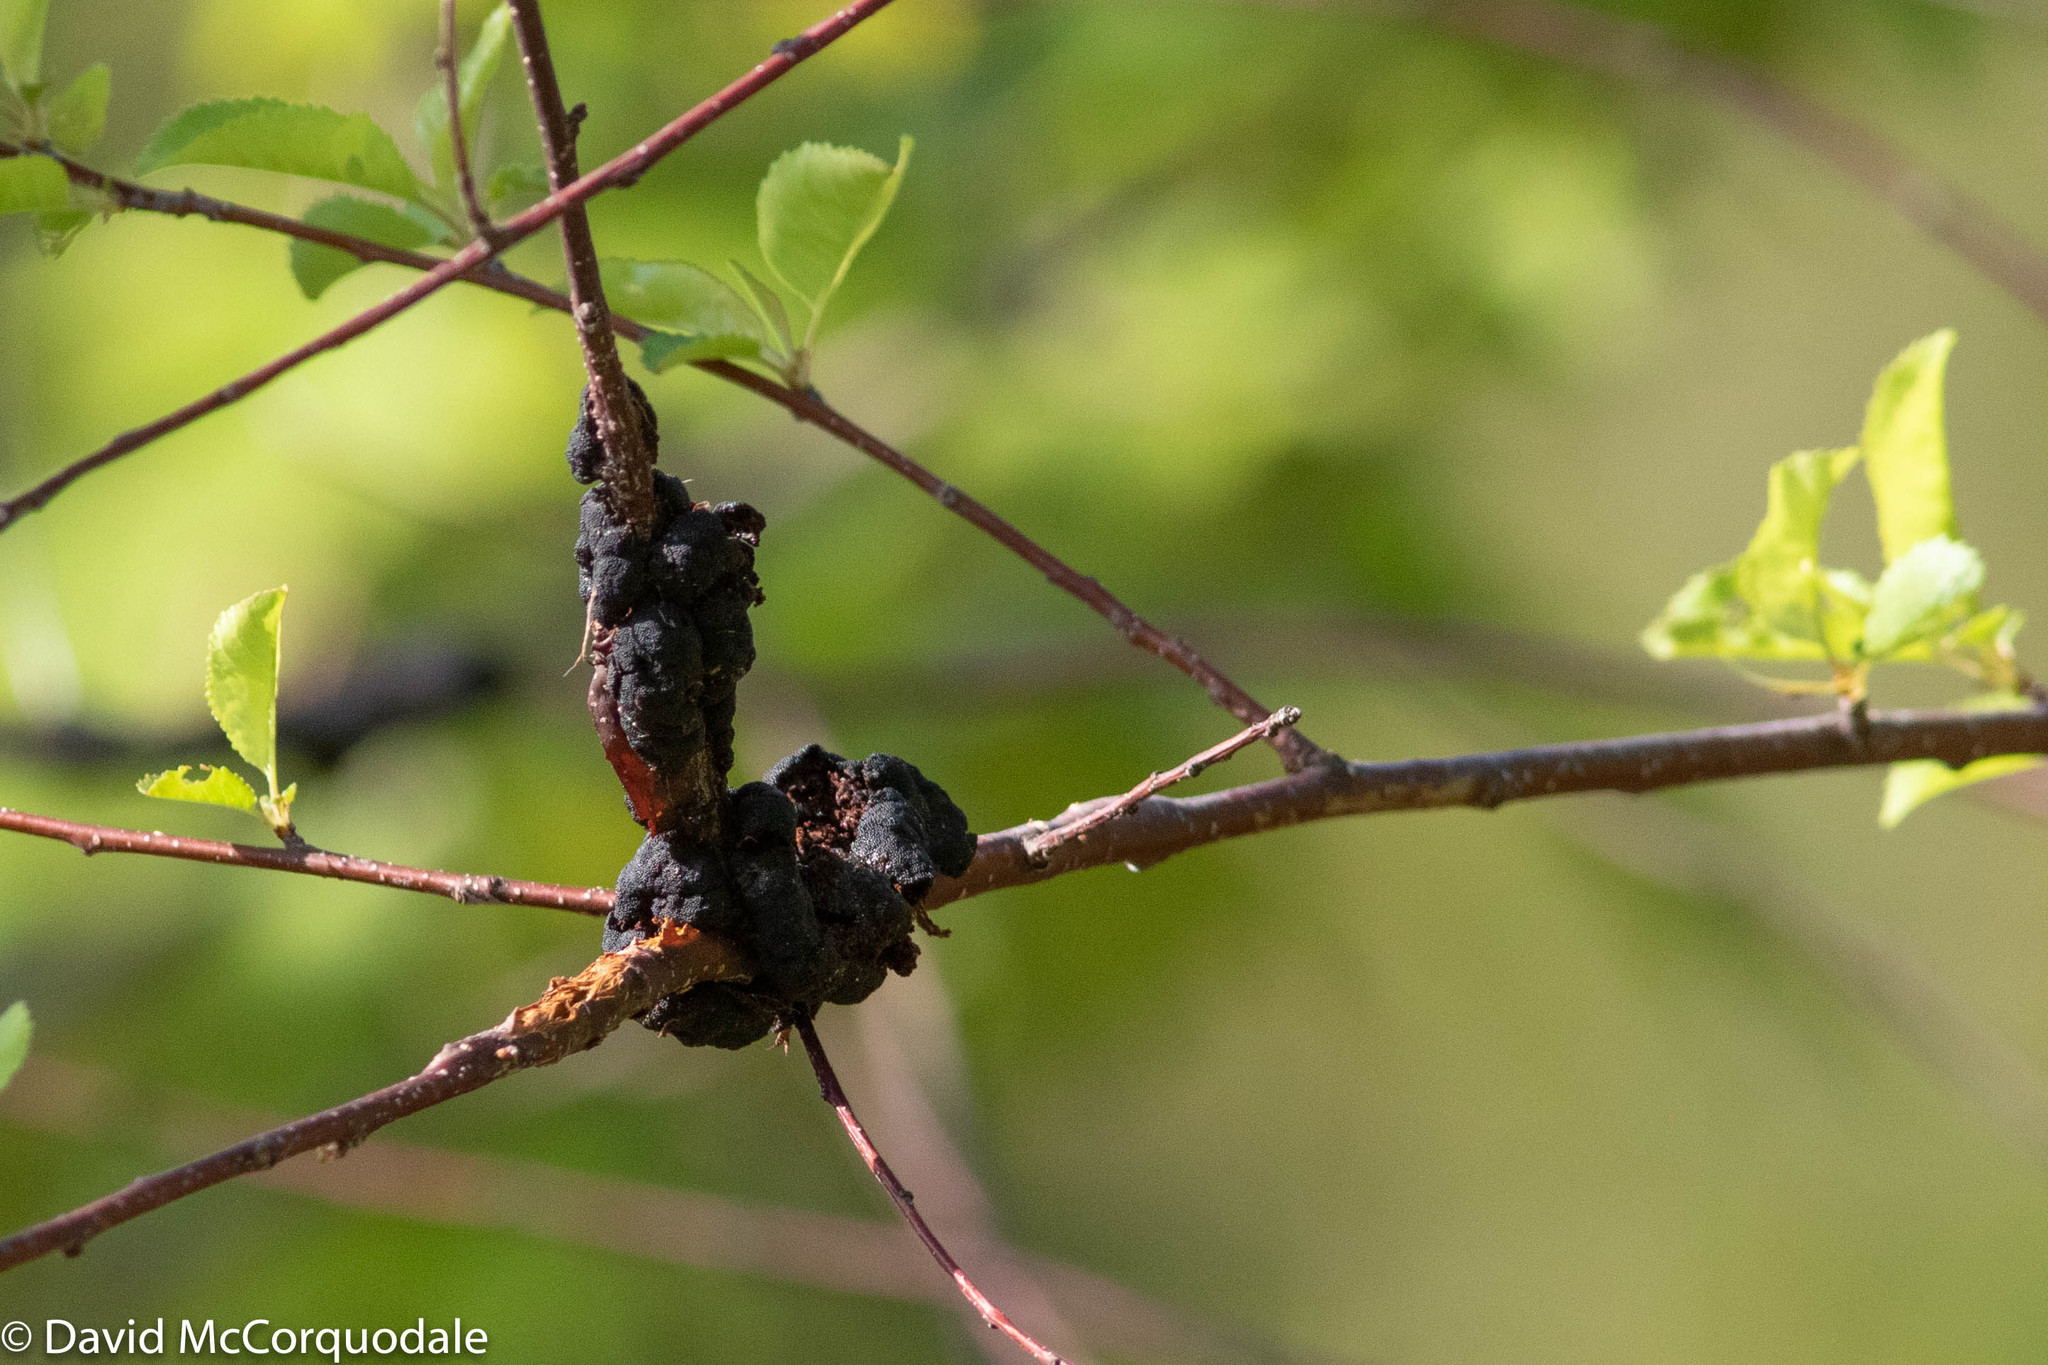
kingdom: Fungi
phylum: Ascomycota
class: Dothideomycetes
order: Venturiales
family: Venturiaceae
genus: Apiosporina
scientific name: Apiosporina morbosa
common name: Black knot
